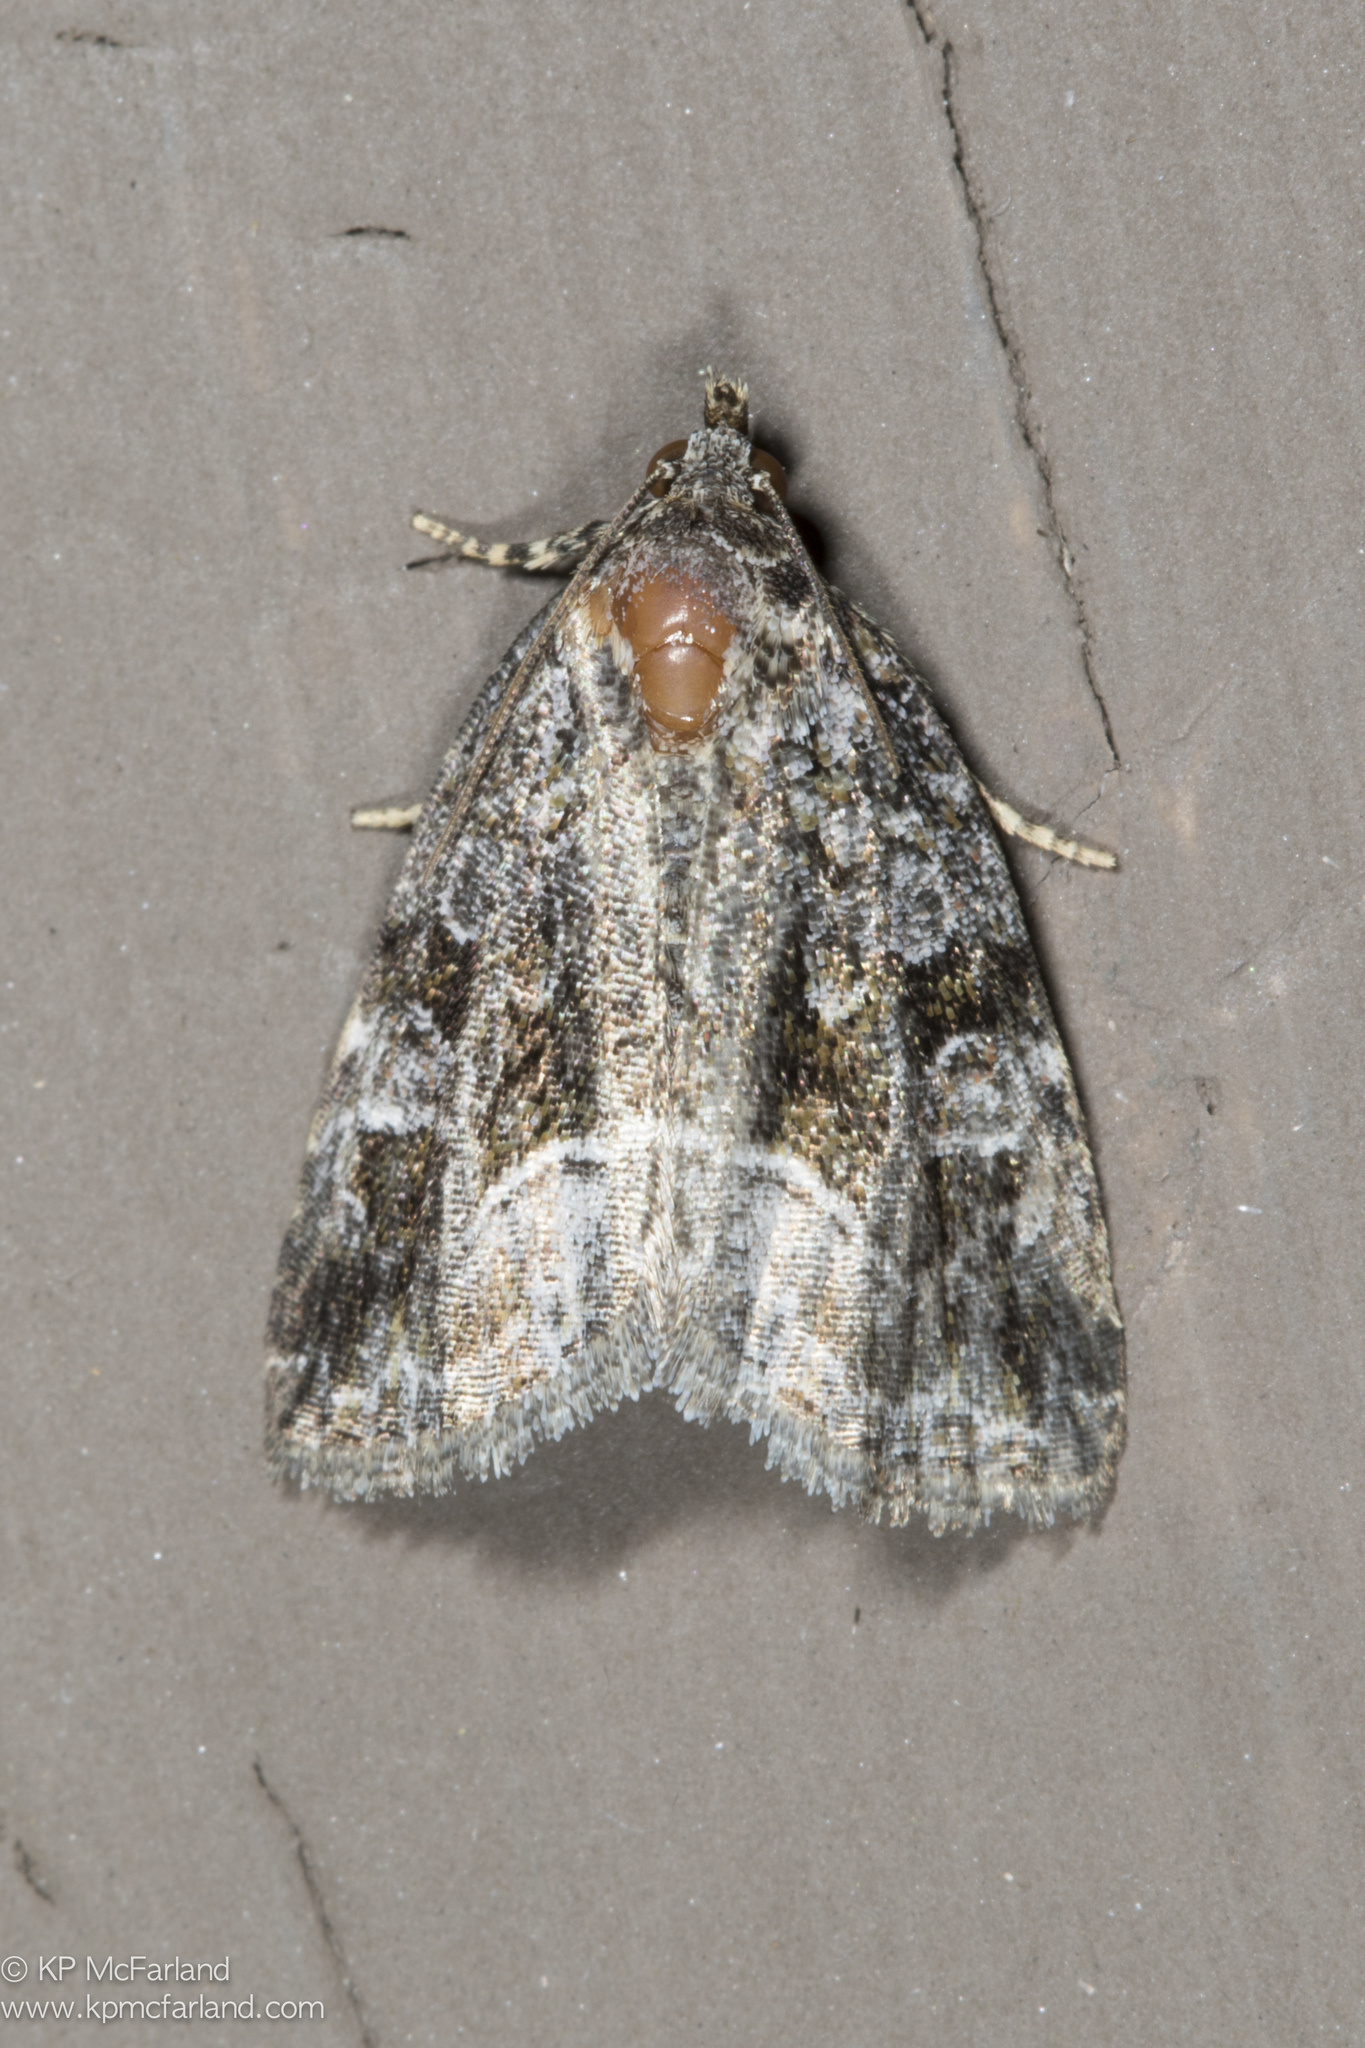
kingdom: Animalia
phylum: Arthropoda
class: Insecta
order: Lepidoptera
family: Noctuidae
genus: Protodeltote
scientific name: Protodeltote muscosula
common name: Large mossy glyph
